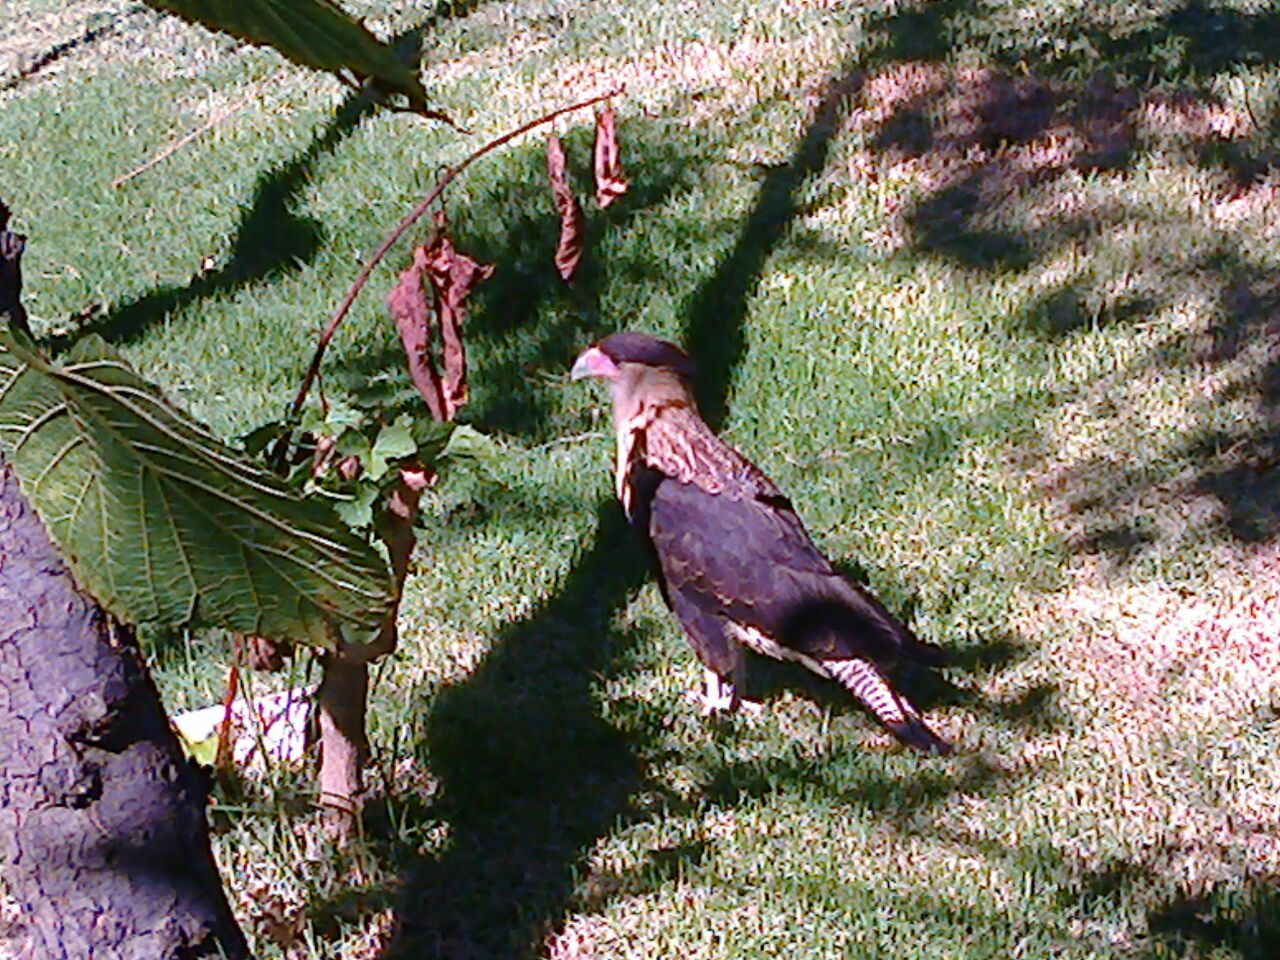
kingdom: Animalia
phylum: Chordata
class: Aves
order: Falconiformes
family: Falconidae
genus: Caracara
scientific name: Caracara plancus
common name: Southern caracara
